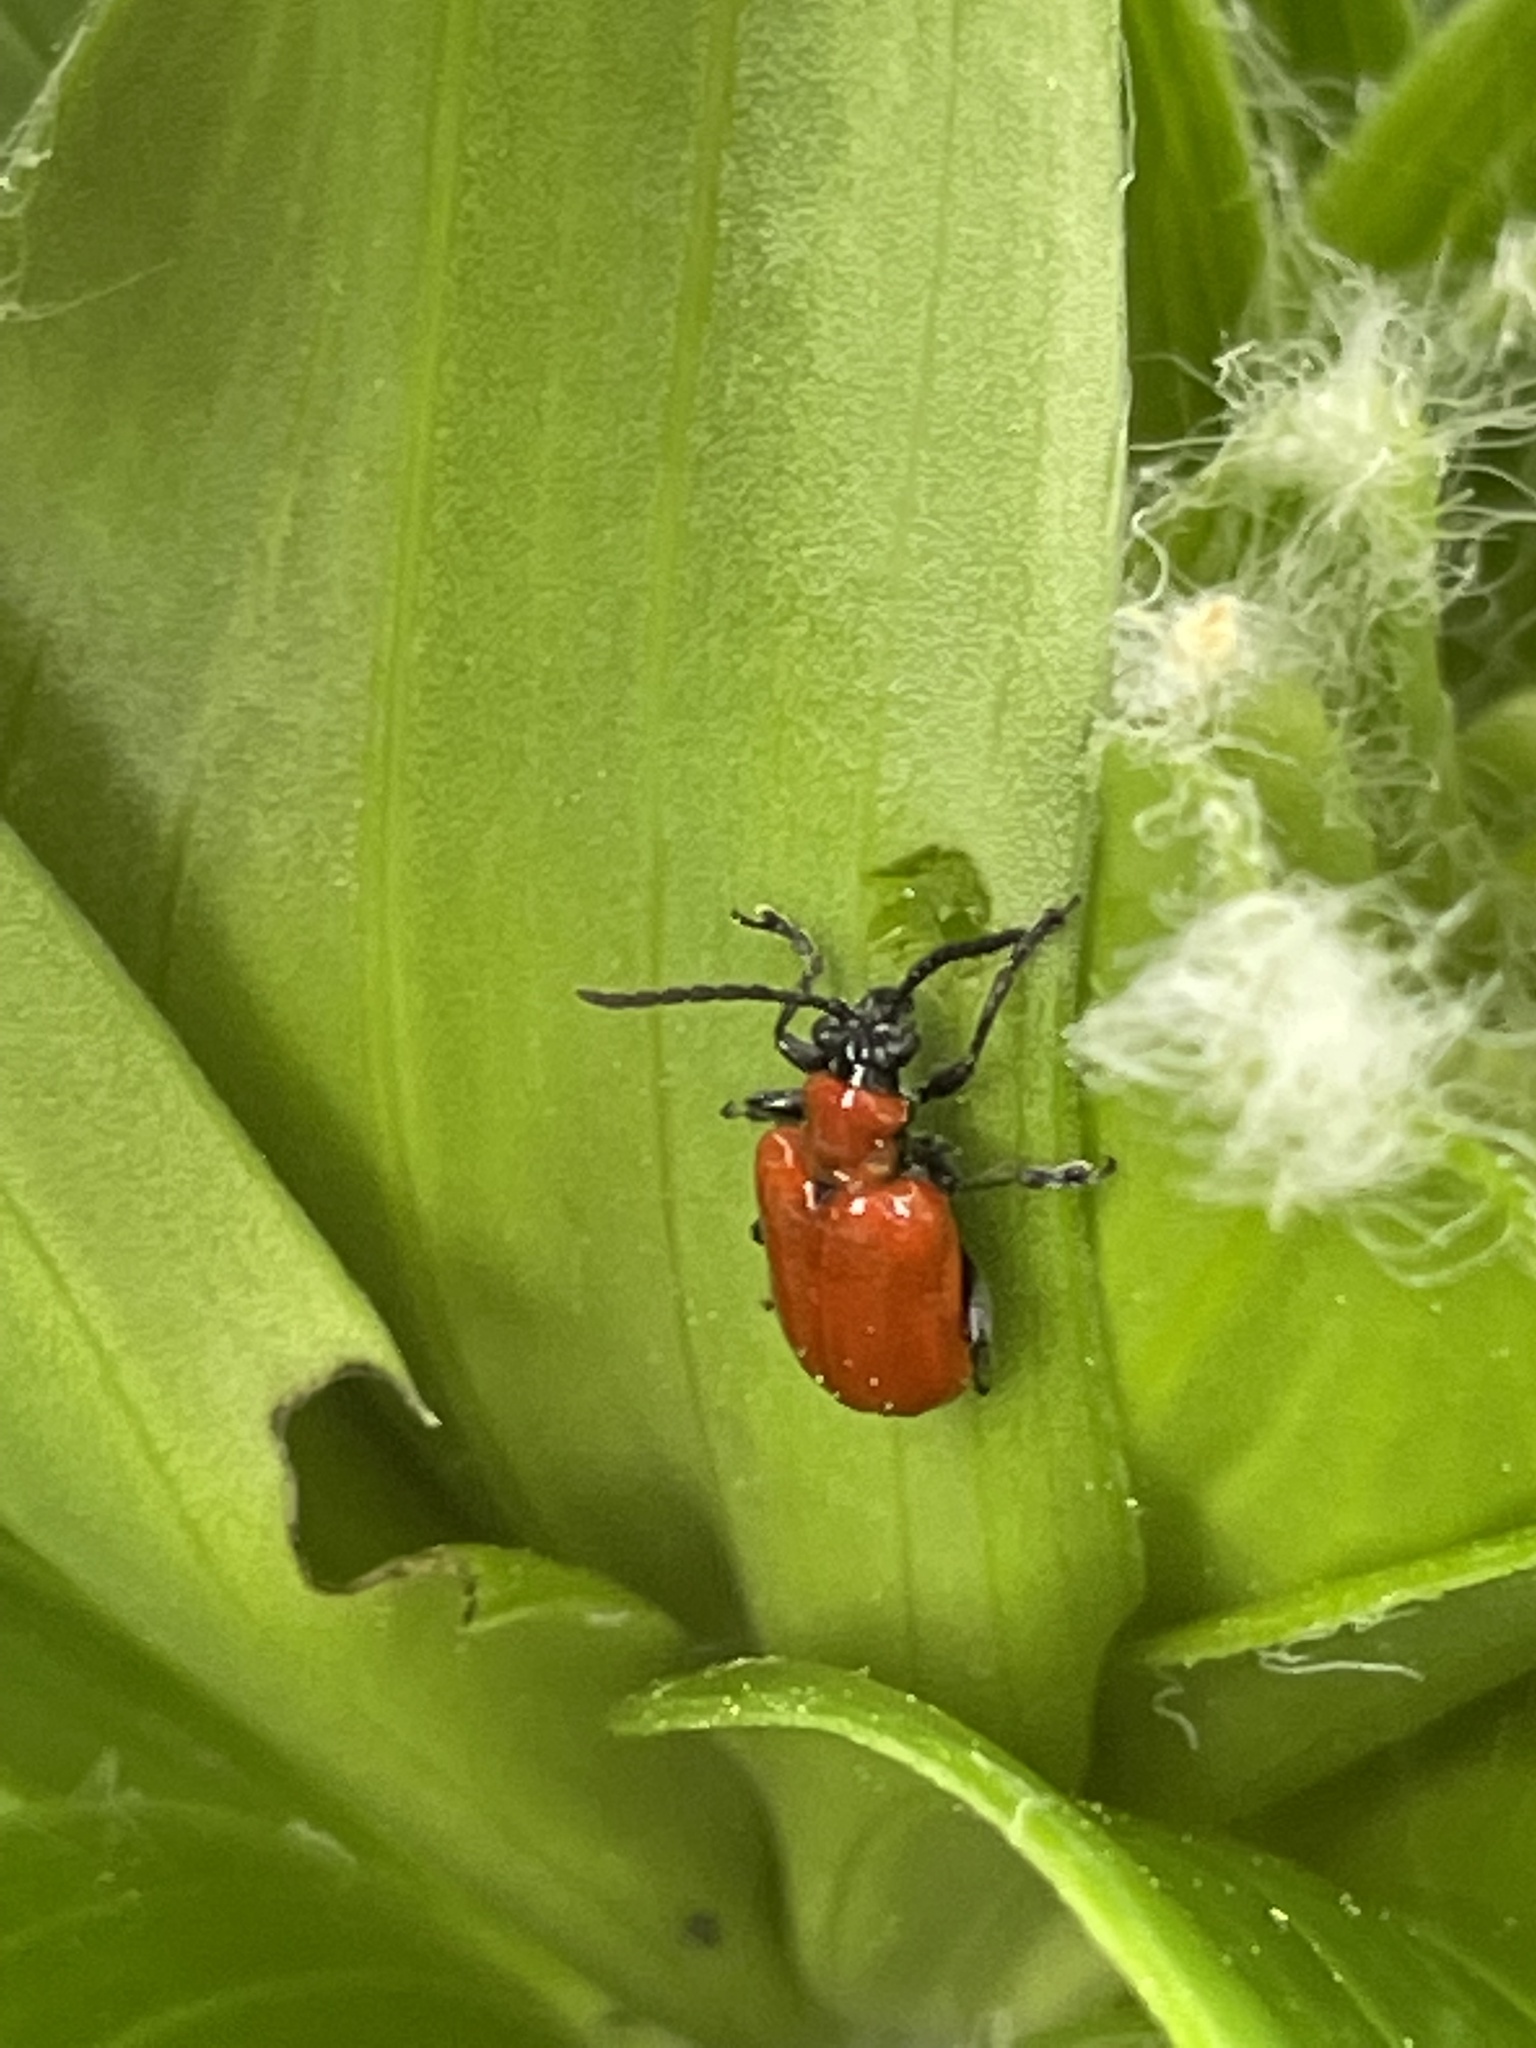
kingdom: Animalia
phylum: Arthropoda
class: Insecta
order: Coleoptera
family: Chrysomelidae
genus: Lilioceris
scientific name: Lilioceris lilii
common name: Lily beetle
